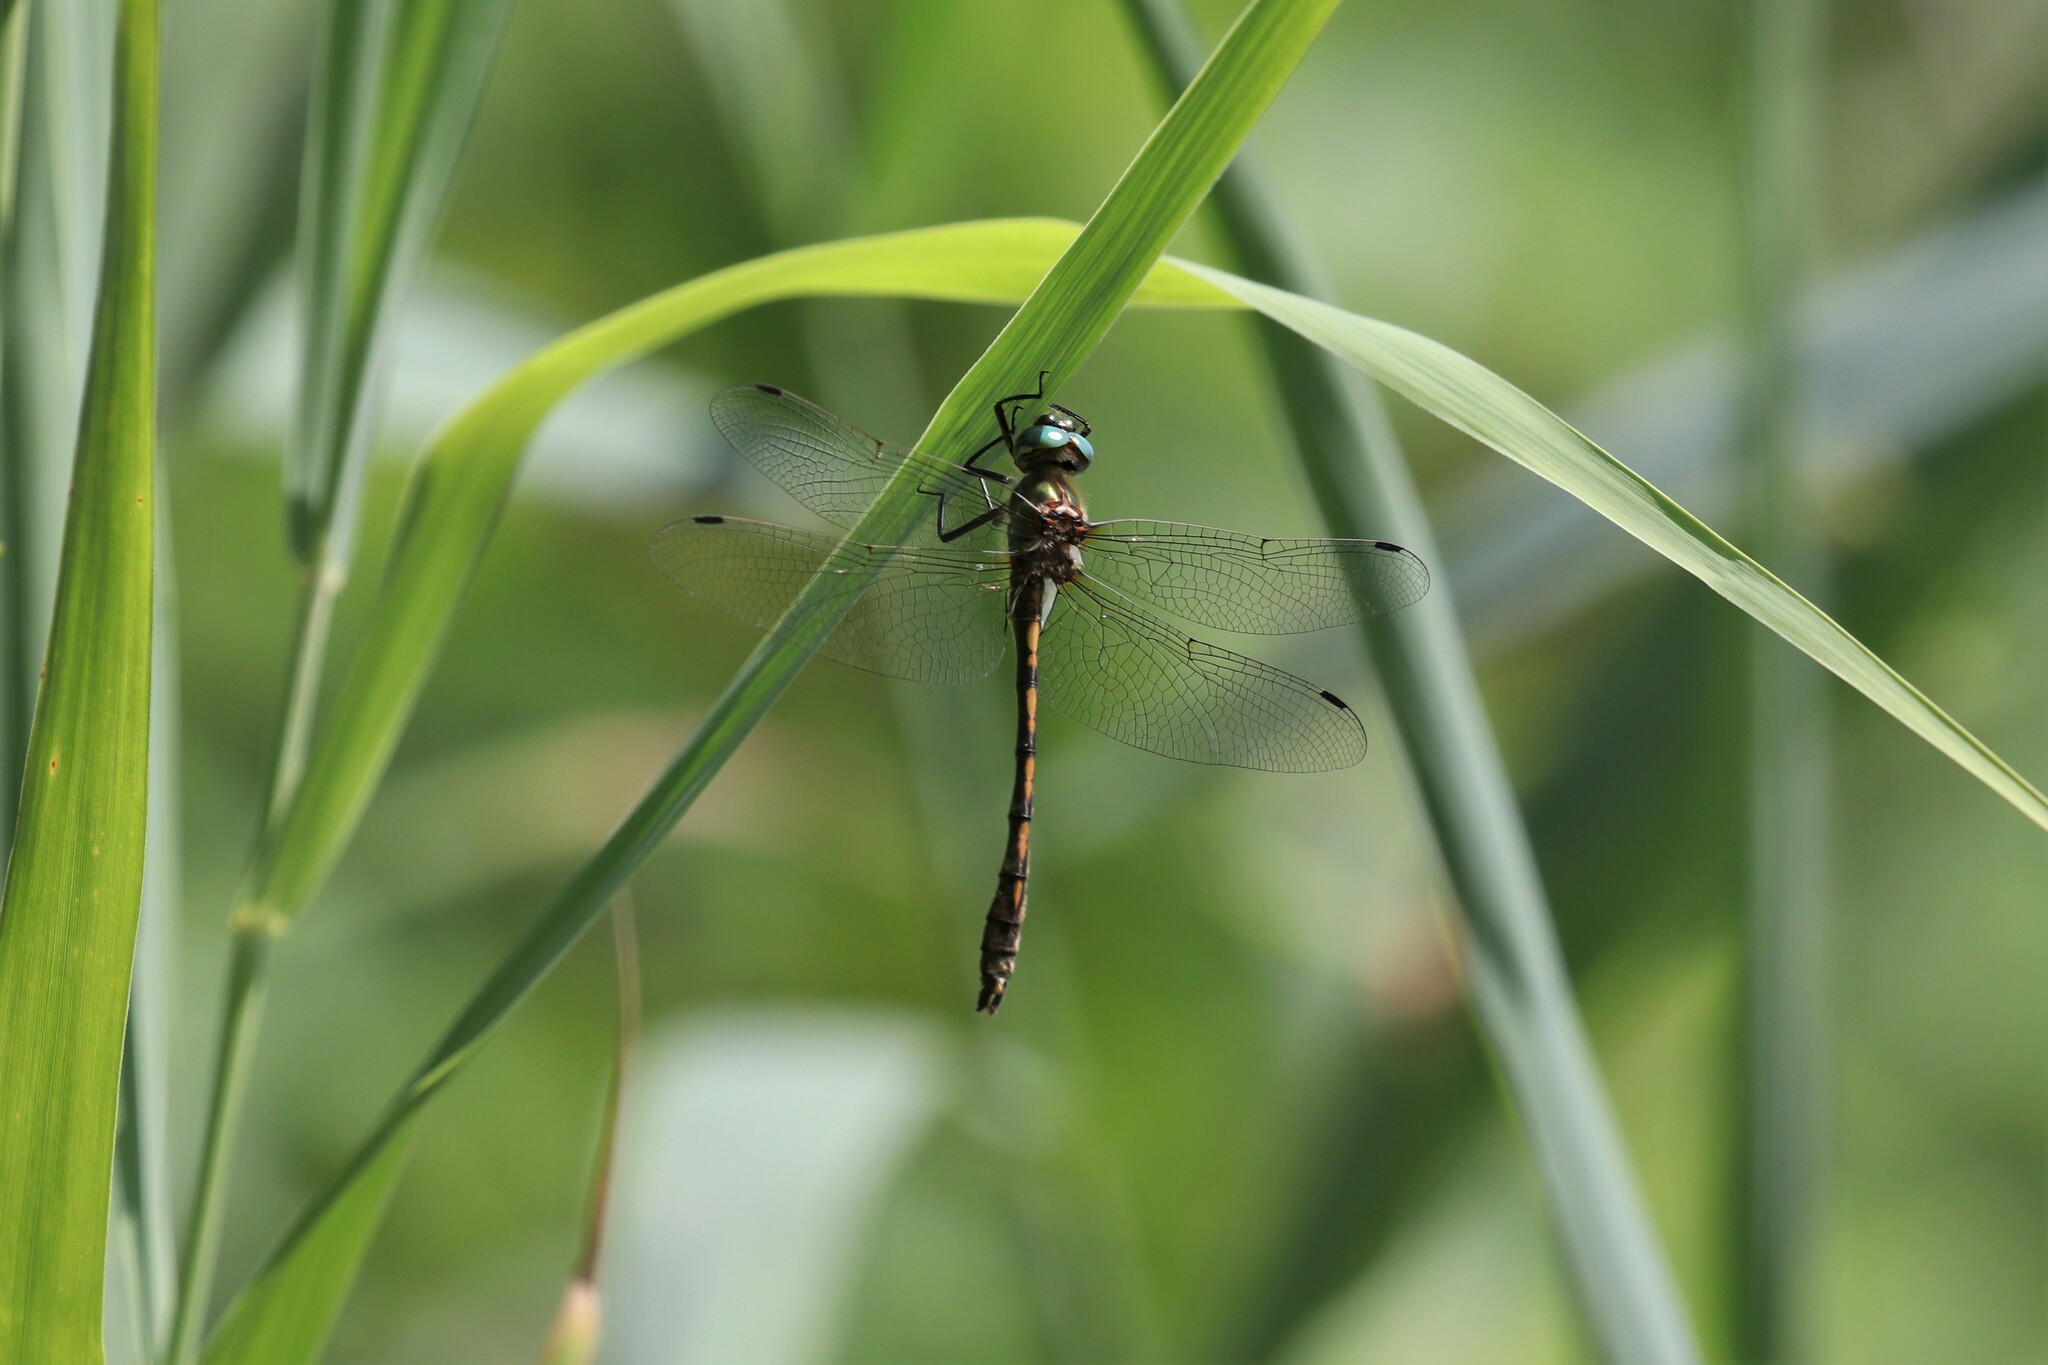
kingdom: Animalia
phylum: Arthropoda
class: Insecta
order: Odonata
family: Corduliidae
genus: Oxygastra
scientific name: Oxygastra curtisii
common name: Orange-spotted emerald
